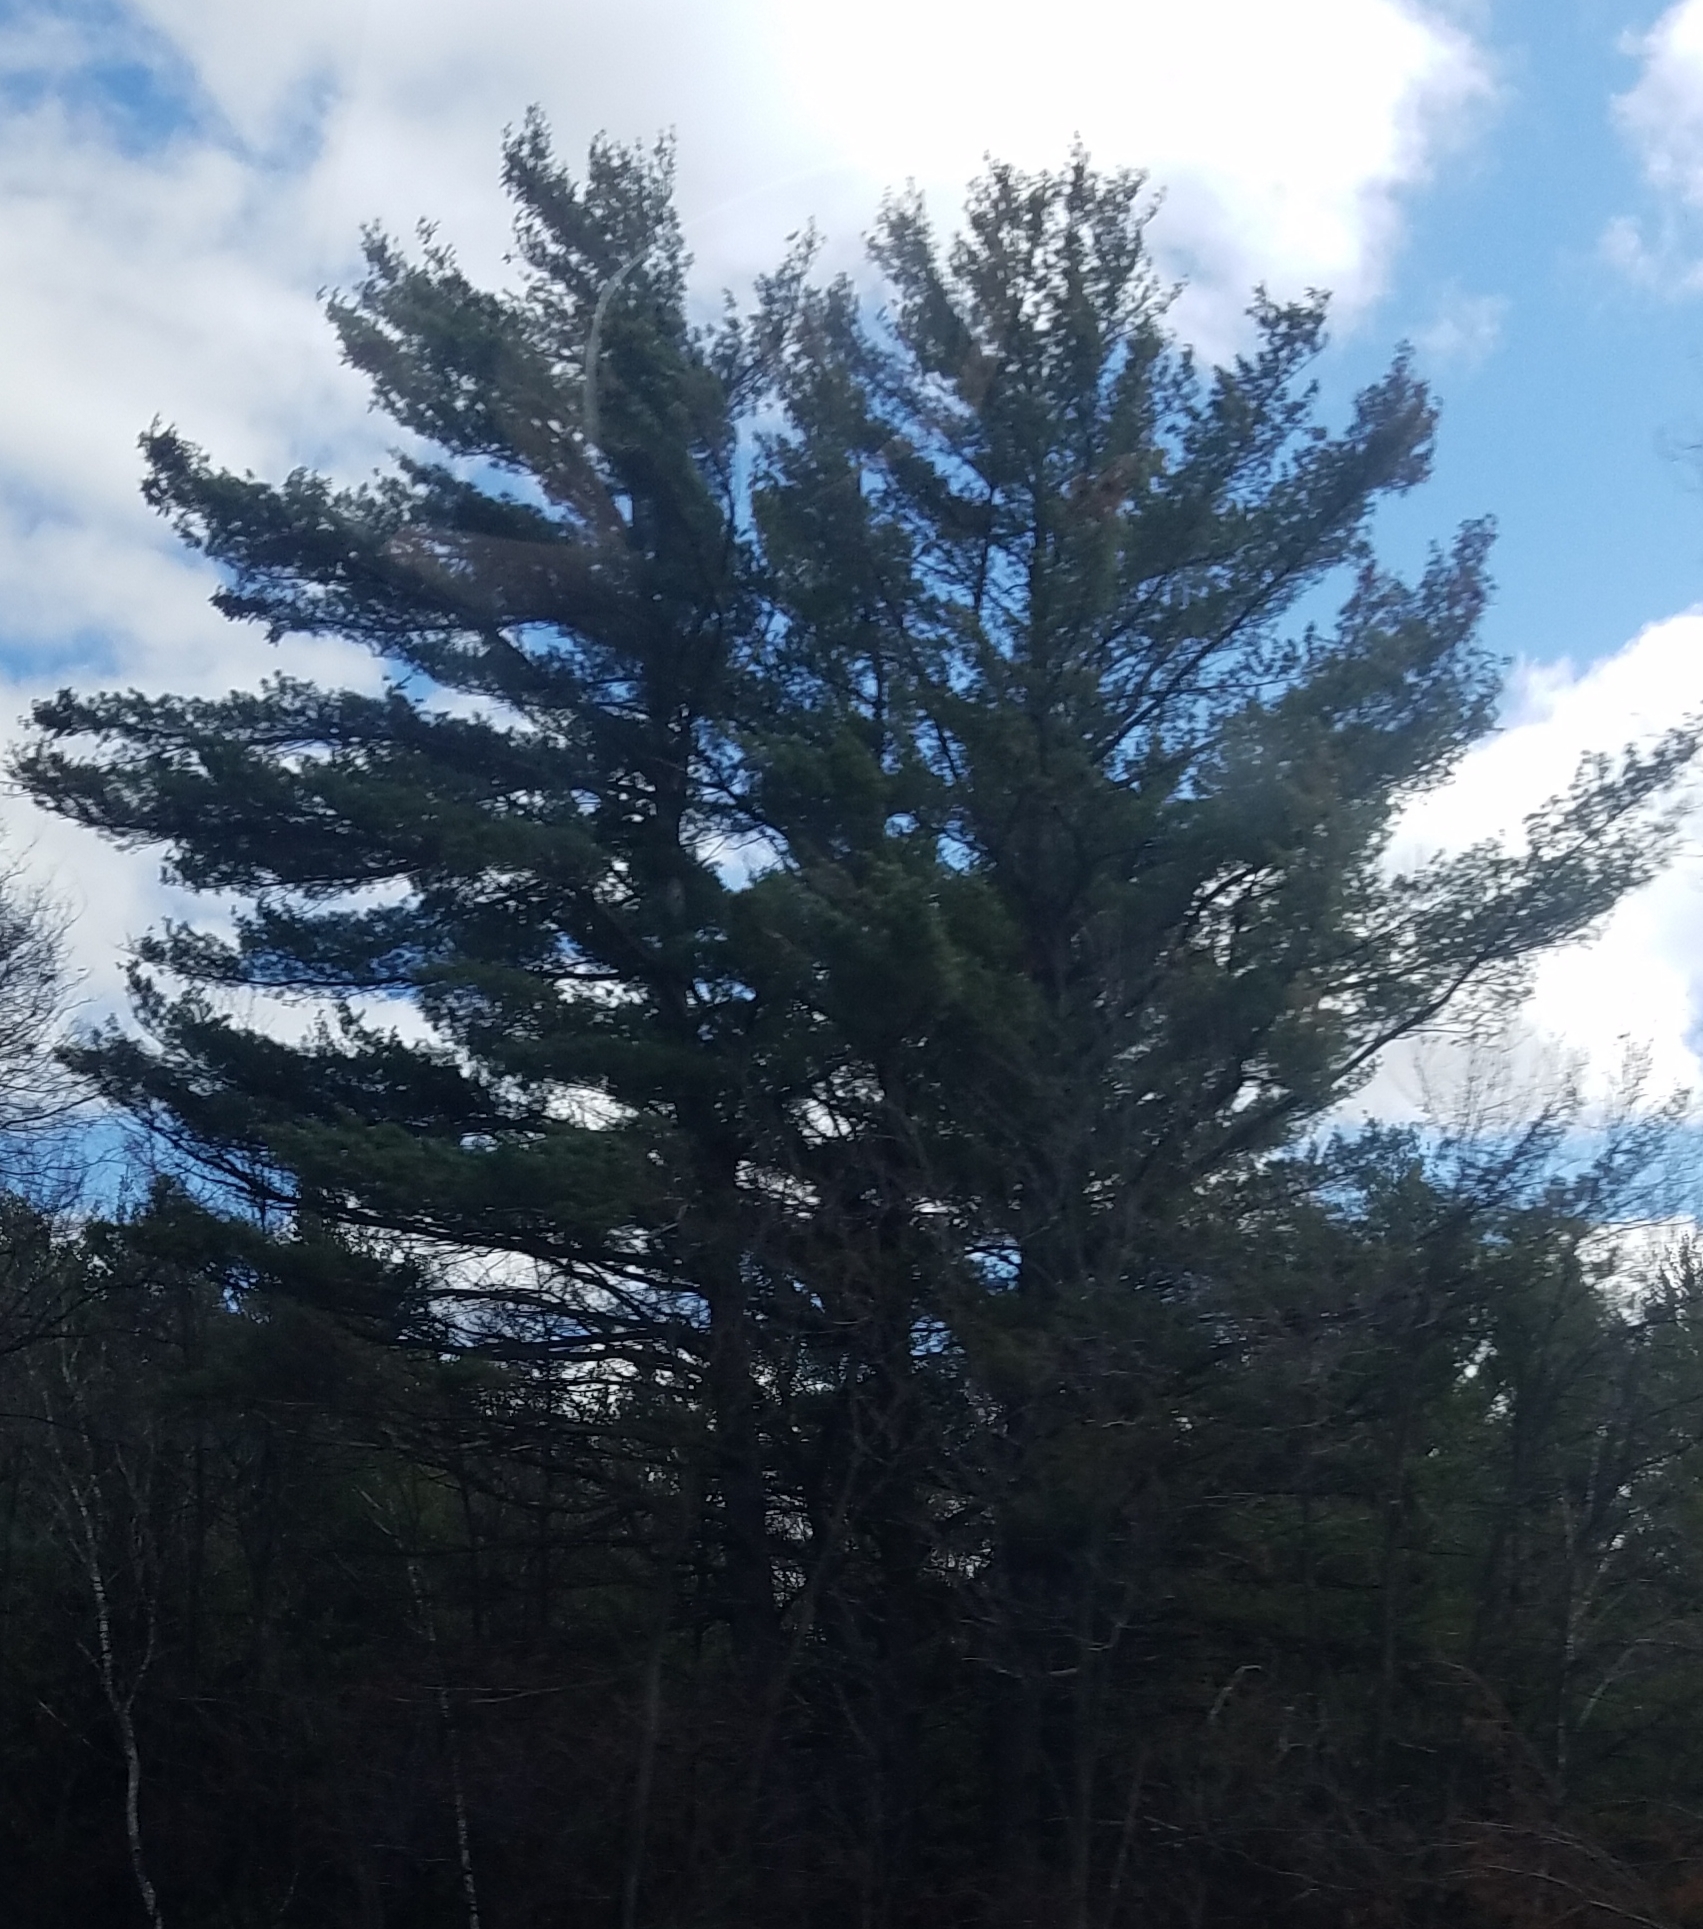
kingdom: Plantae
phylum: Tracheophyta
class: Pinopsida
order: Pinales
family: Pinaceae
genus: Pinus
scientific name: Pinus strobus
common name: Weymouth pine
